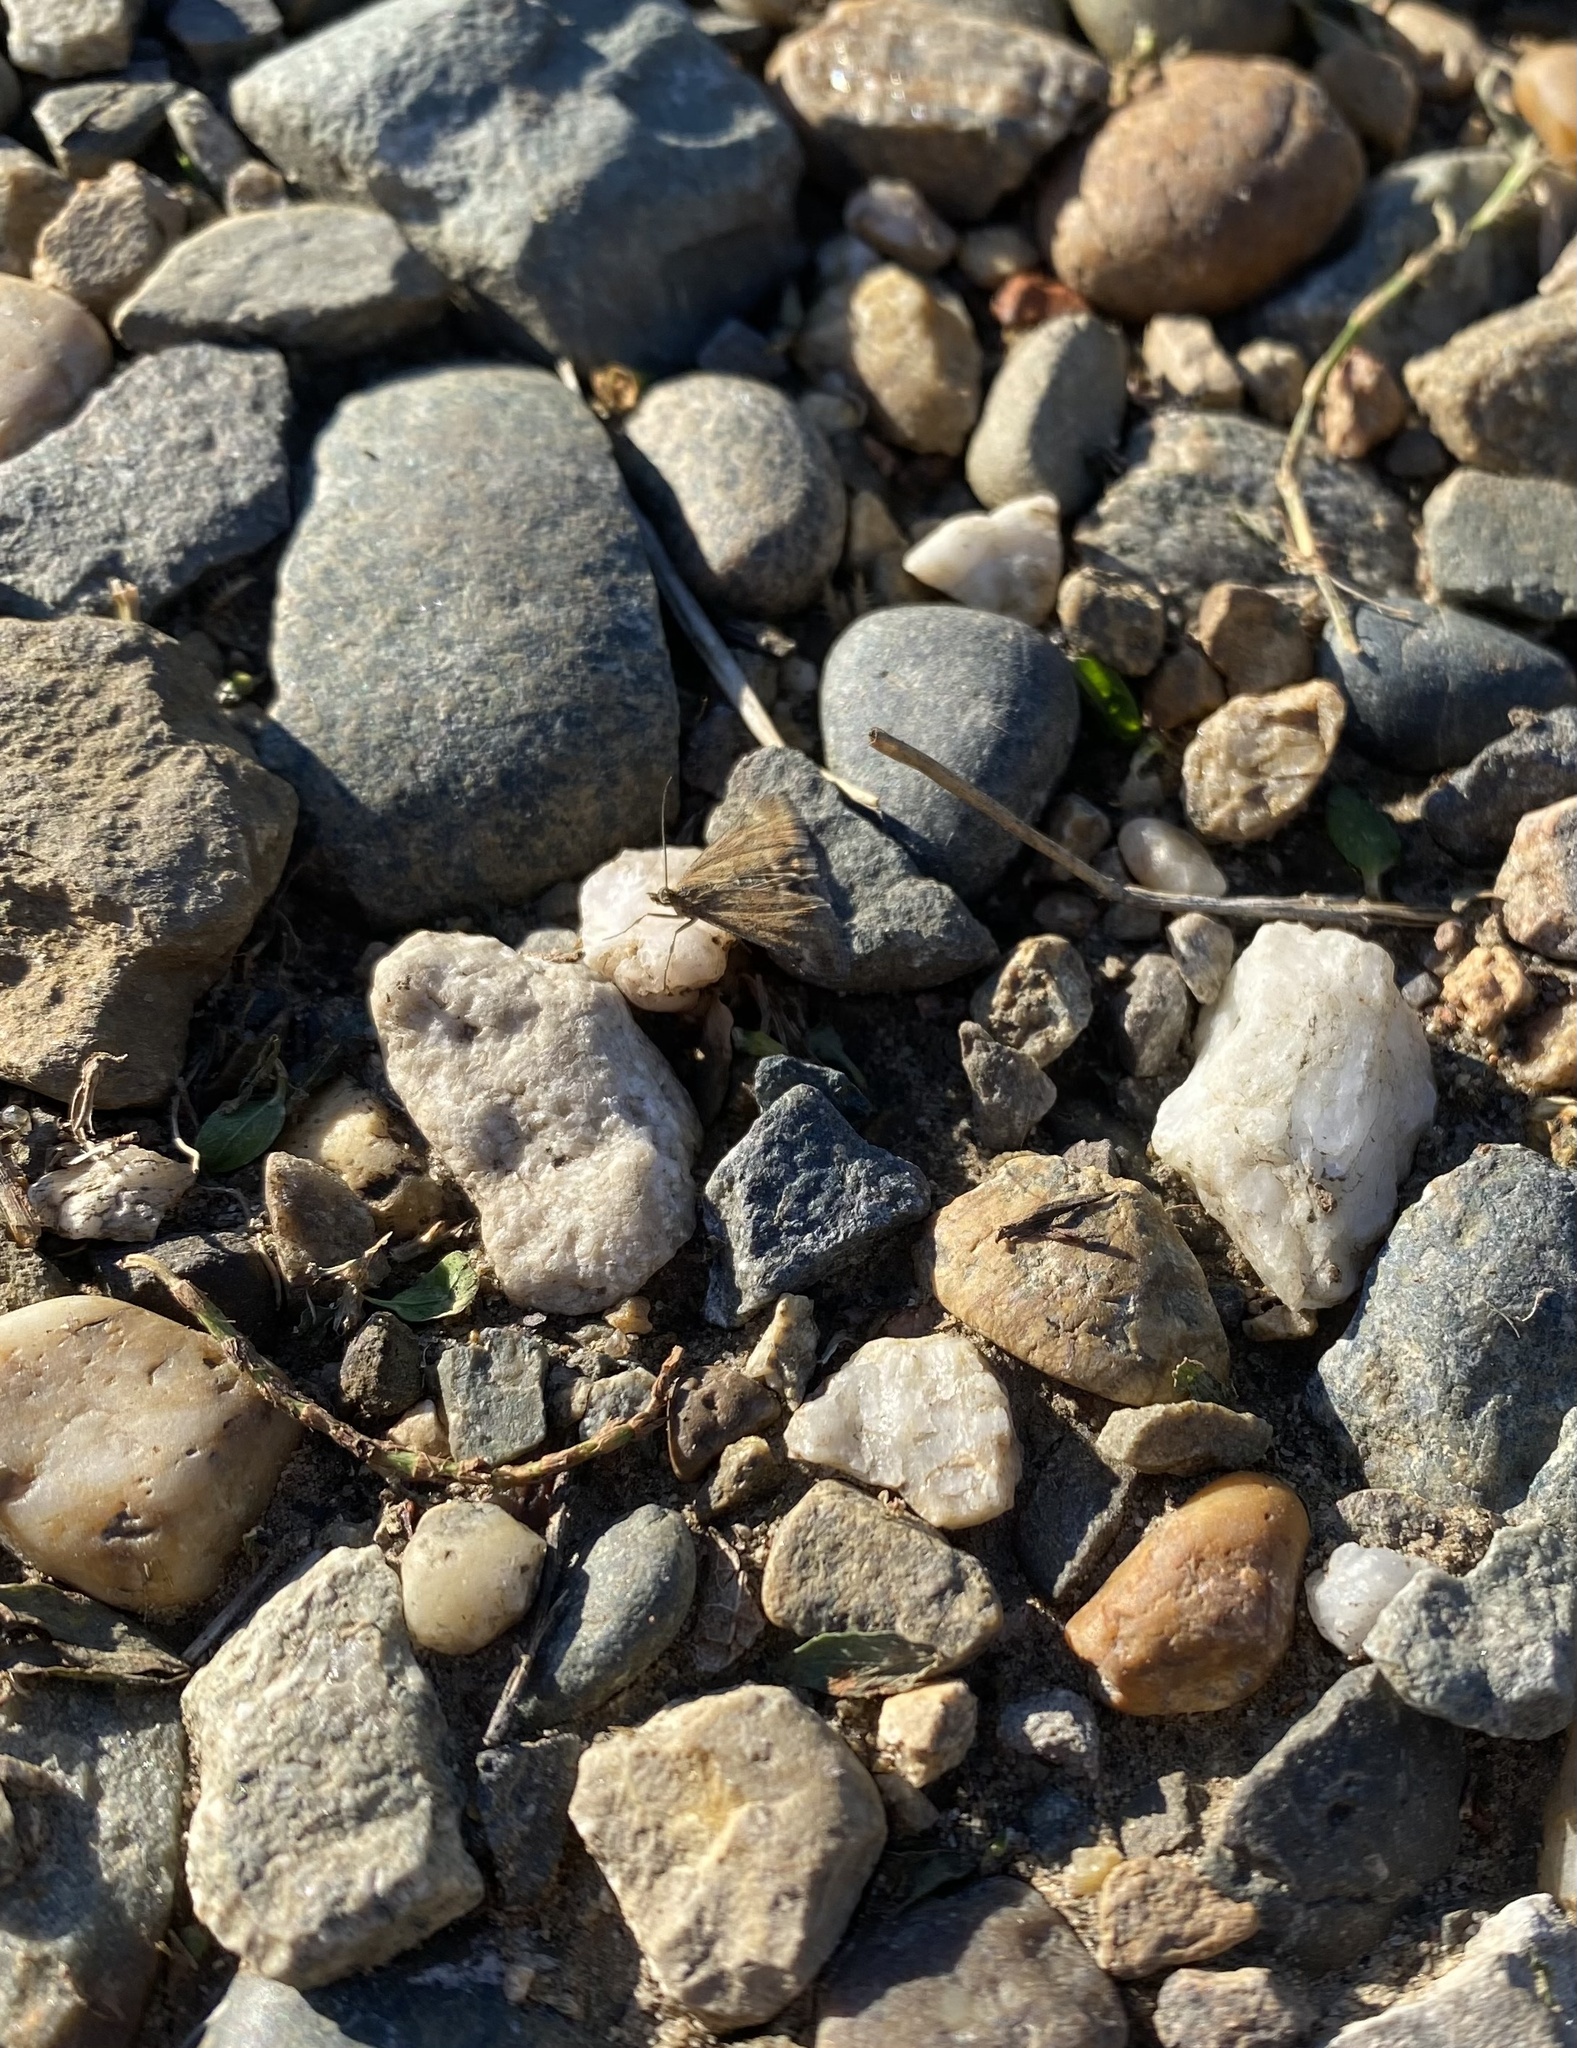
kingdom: Animalia
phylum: Arthropoda
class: Insecta
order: Lepidoptera
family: Crambidae
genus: Pyrausta
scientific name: Pyrausta despicata
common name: Straw-barred pearl
